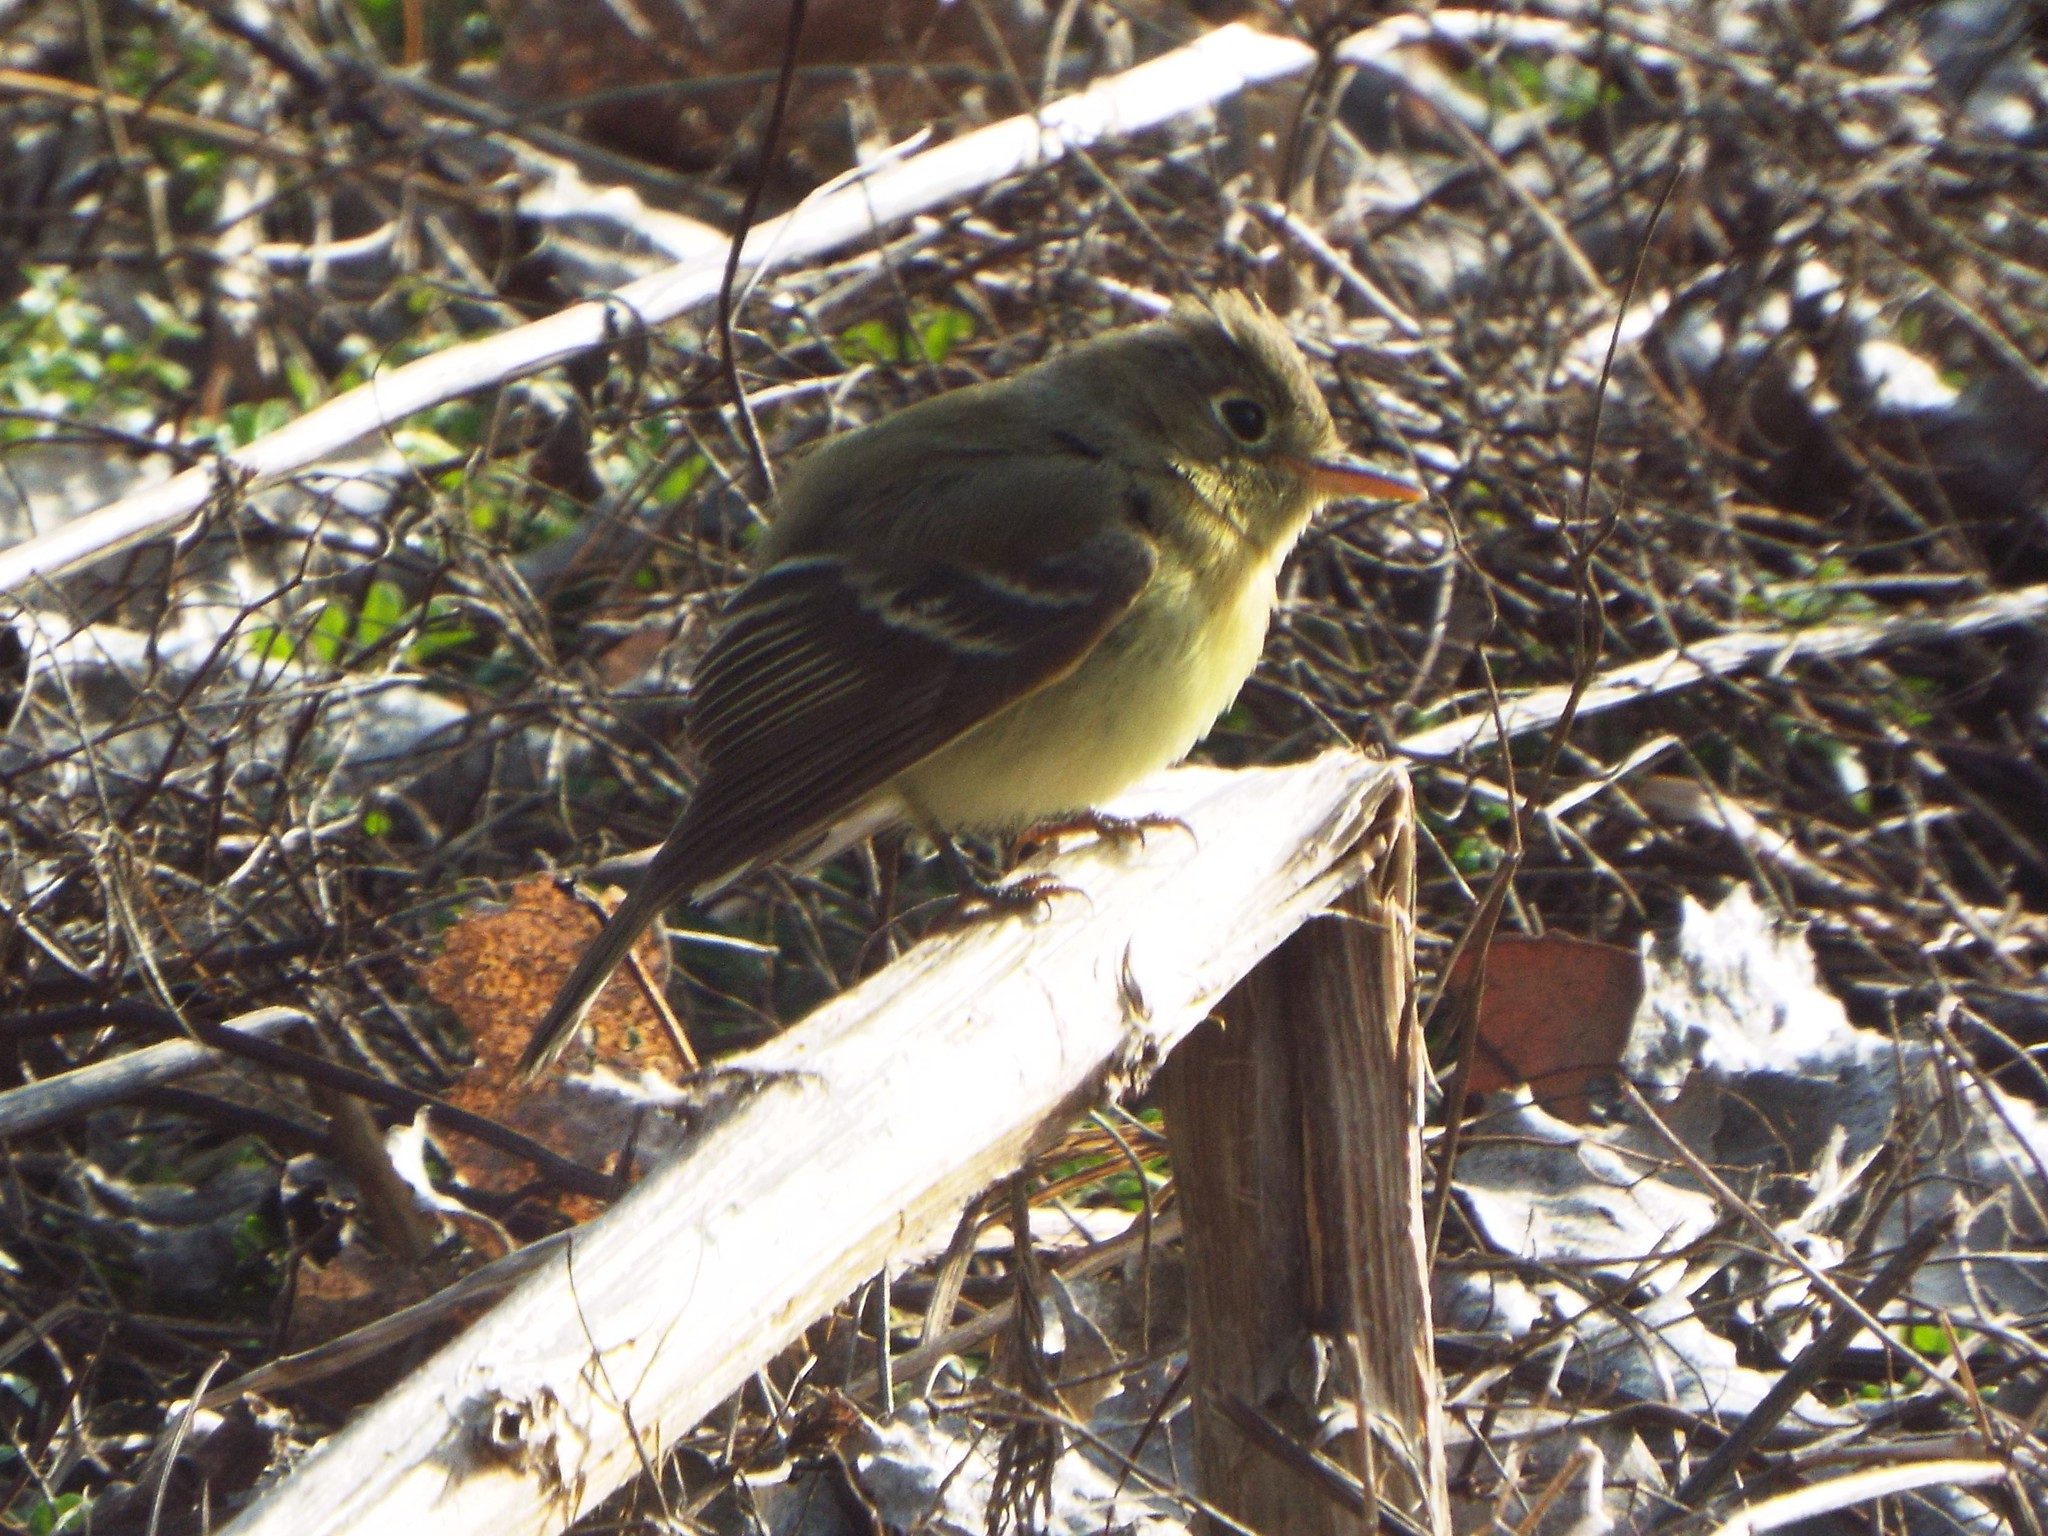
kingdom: Animalia
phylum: Chordata
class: Aves
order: Passeriformes
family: Tyrannidae
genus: Empidonax
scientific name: Empidonax difficilis
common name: Pacific-slope flycatcher
